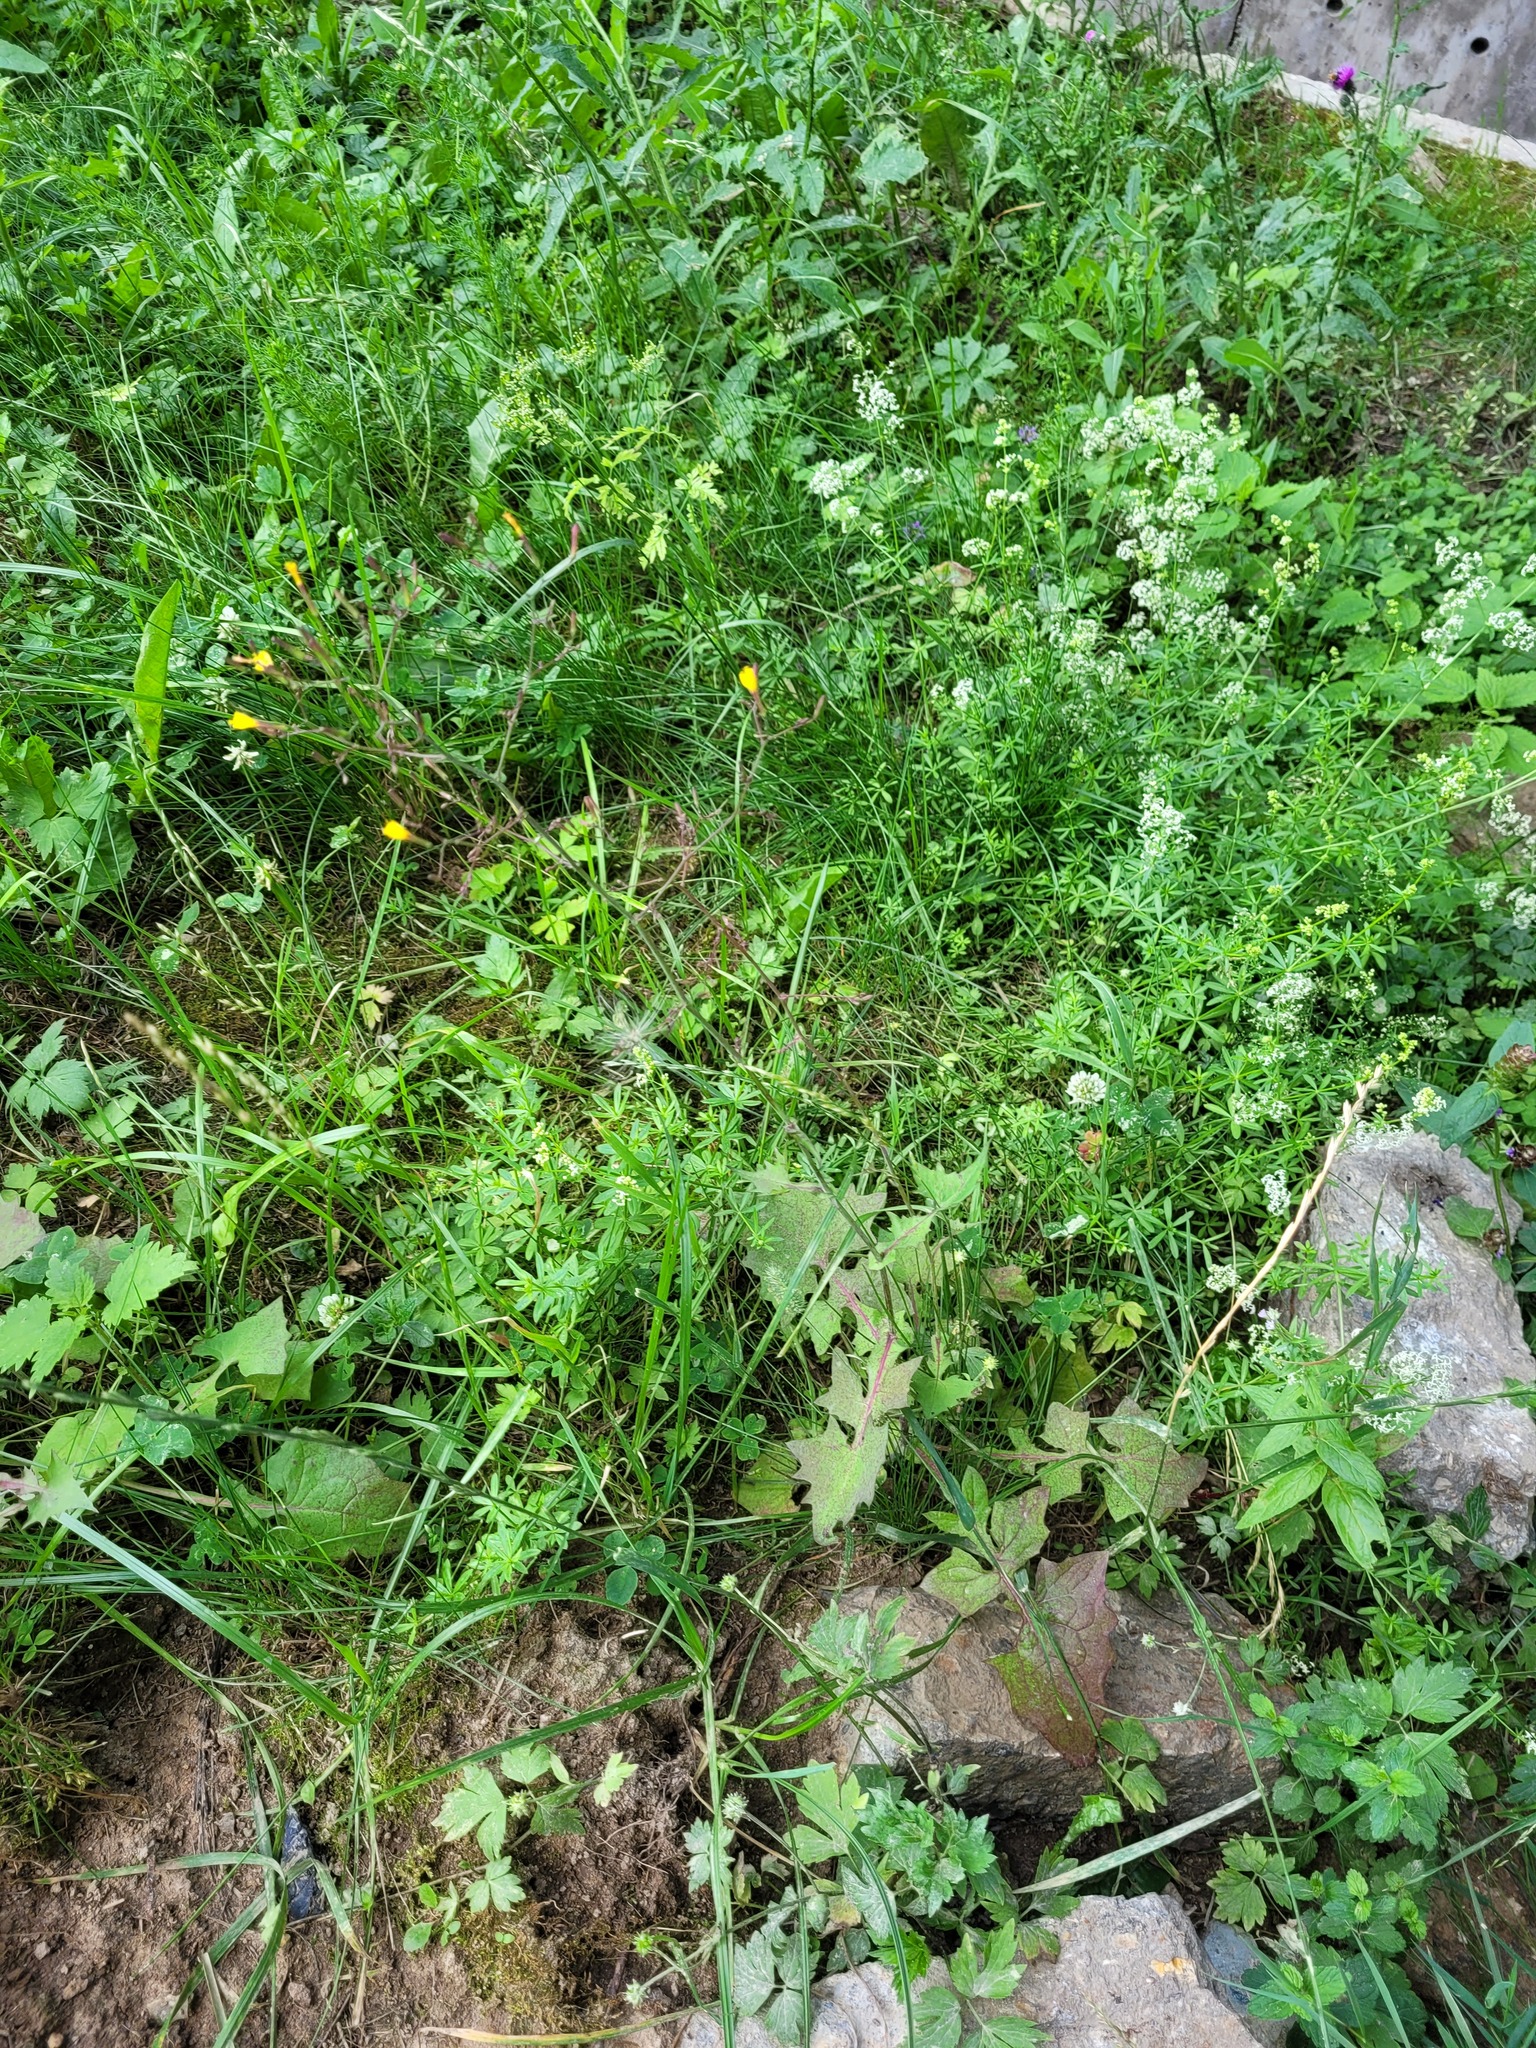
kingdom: Plantae
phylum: Tracheophyta
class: Magnoliopsida
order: Asterales
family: Asteraceae
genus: Mycelis
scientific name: Mycelis muralis
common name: Wall lettuce
